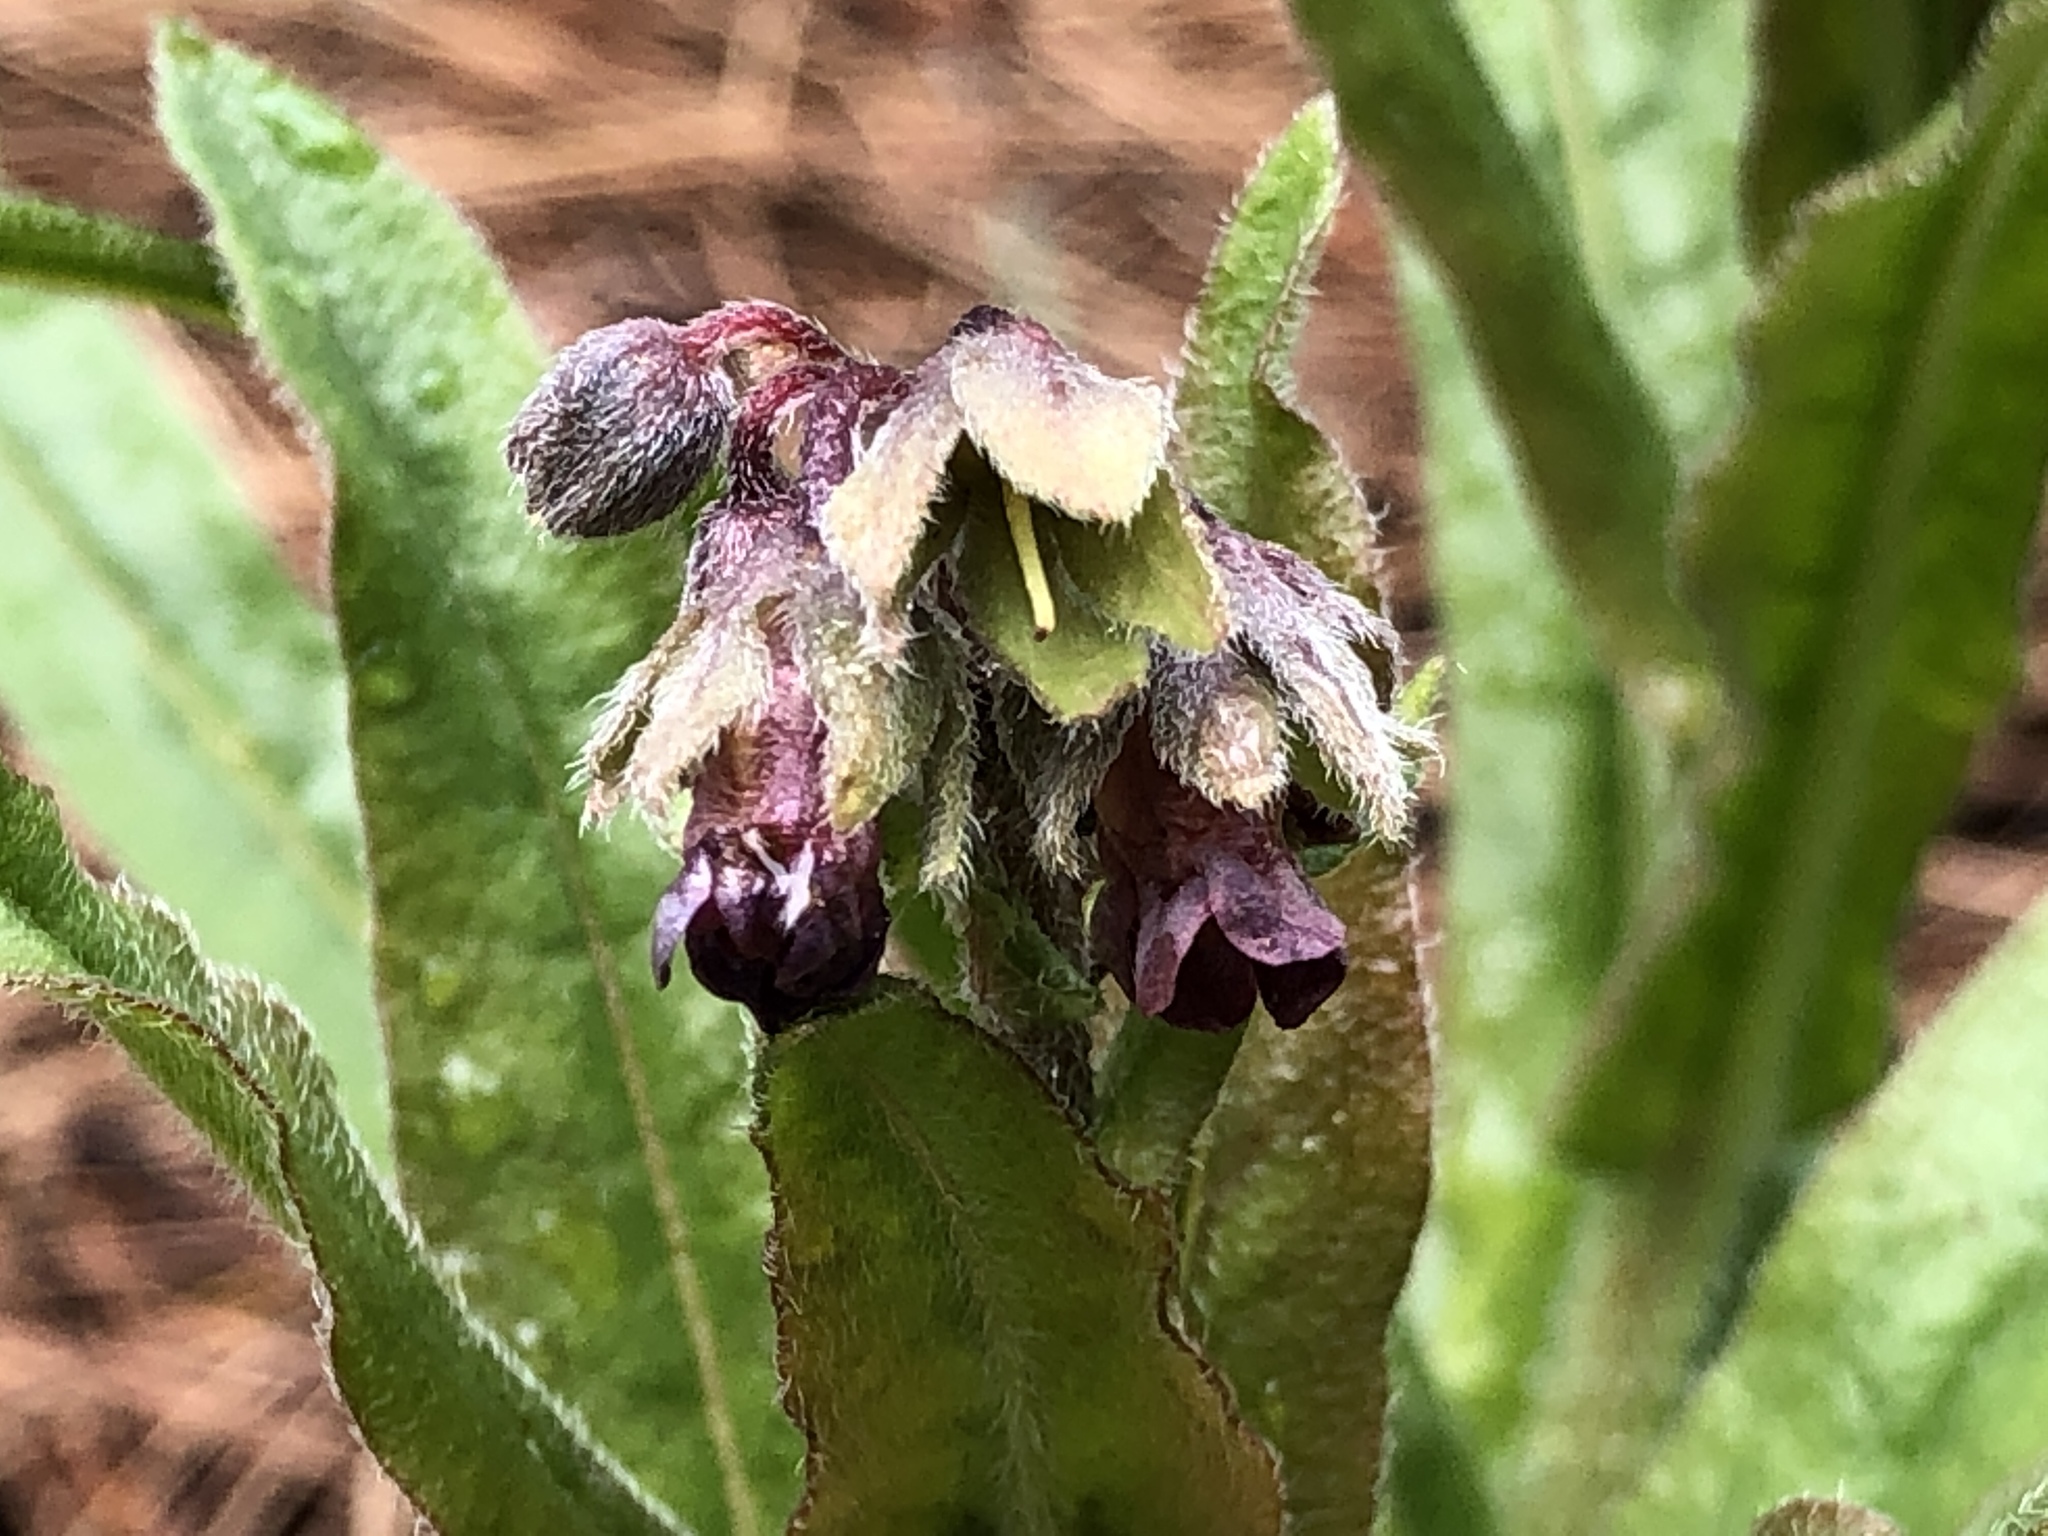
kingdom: Plantae
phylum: Tracheophyta
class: Magnoliopsida
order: Boraginales
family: Boraginaceae
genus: Andersonglossum
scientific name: Andersonglossum occidentale
